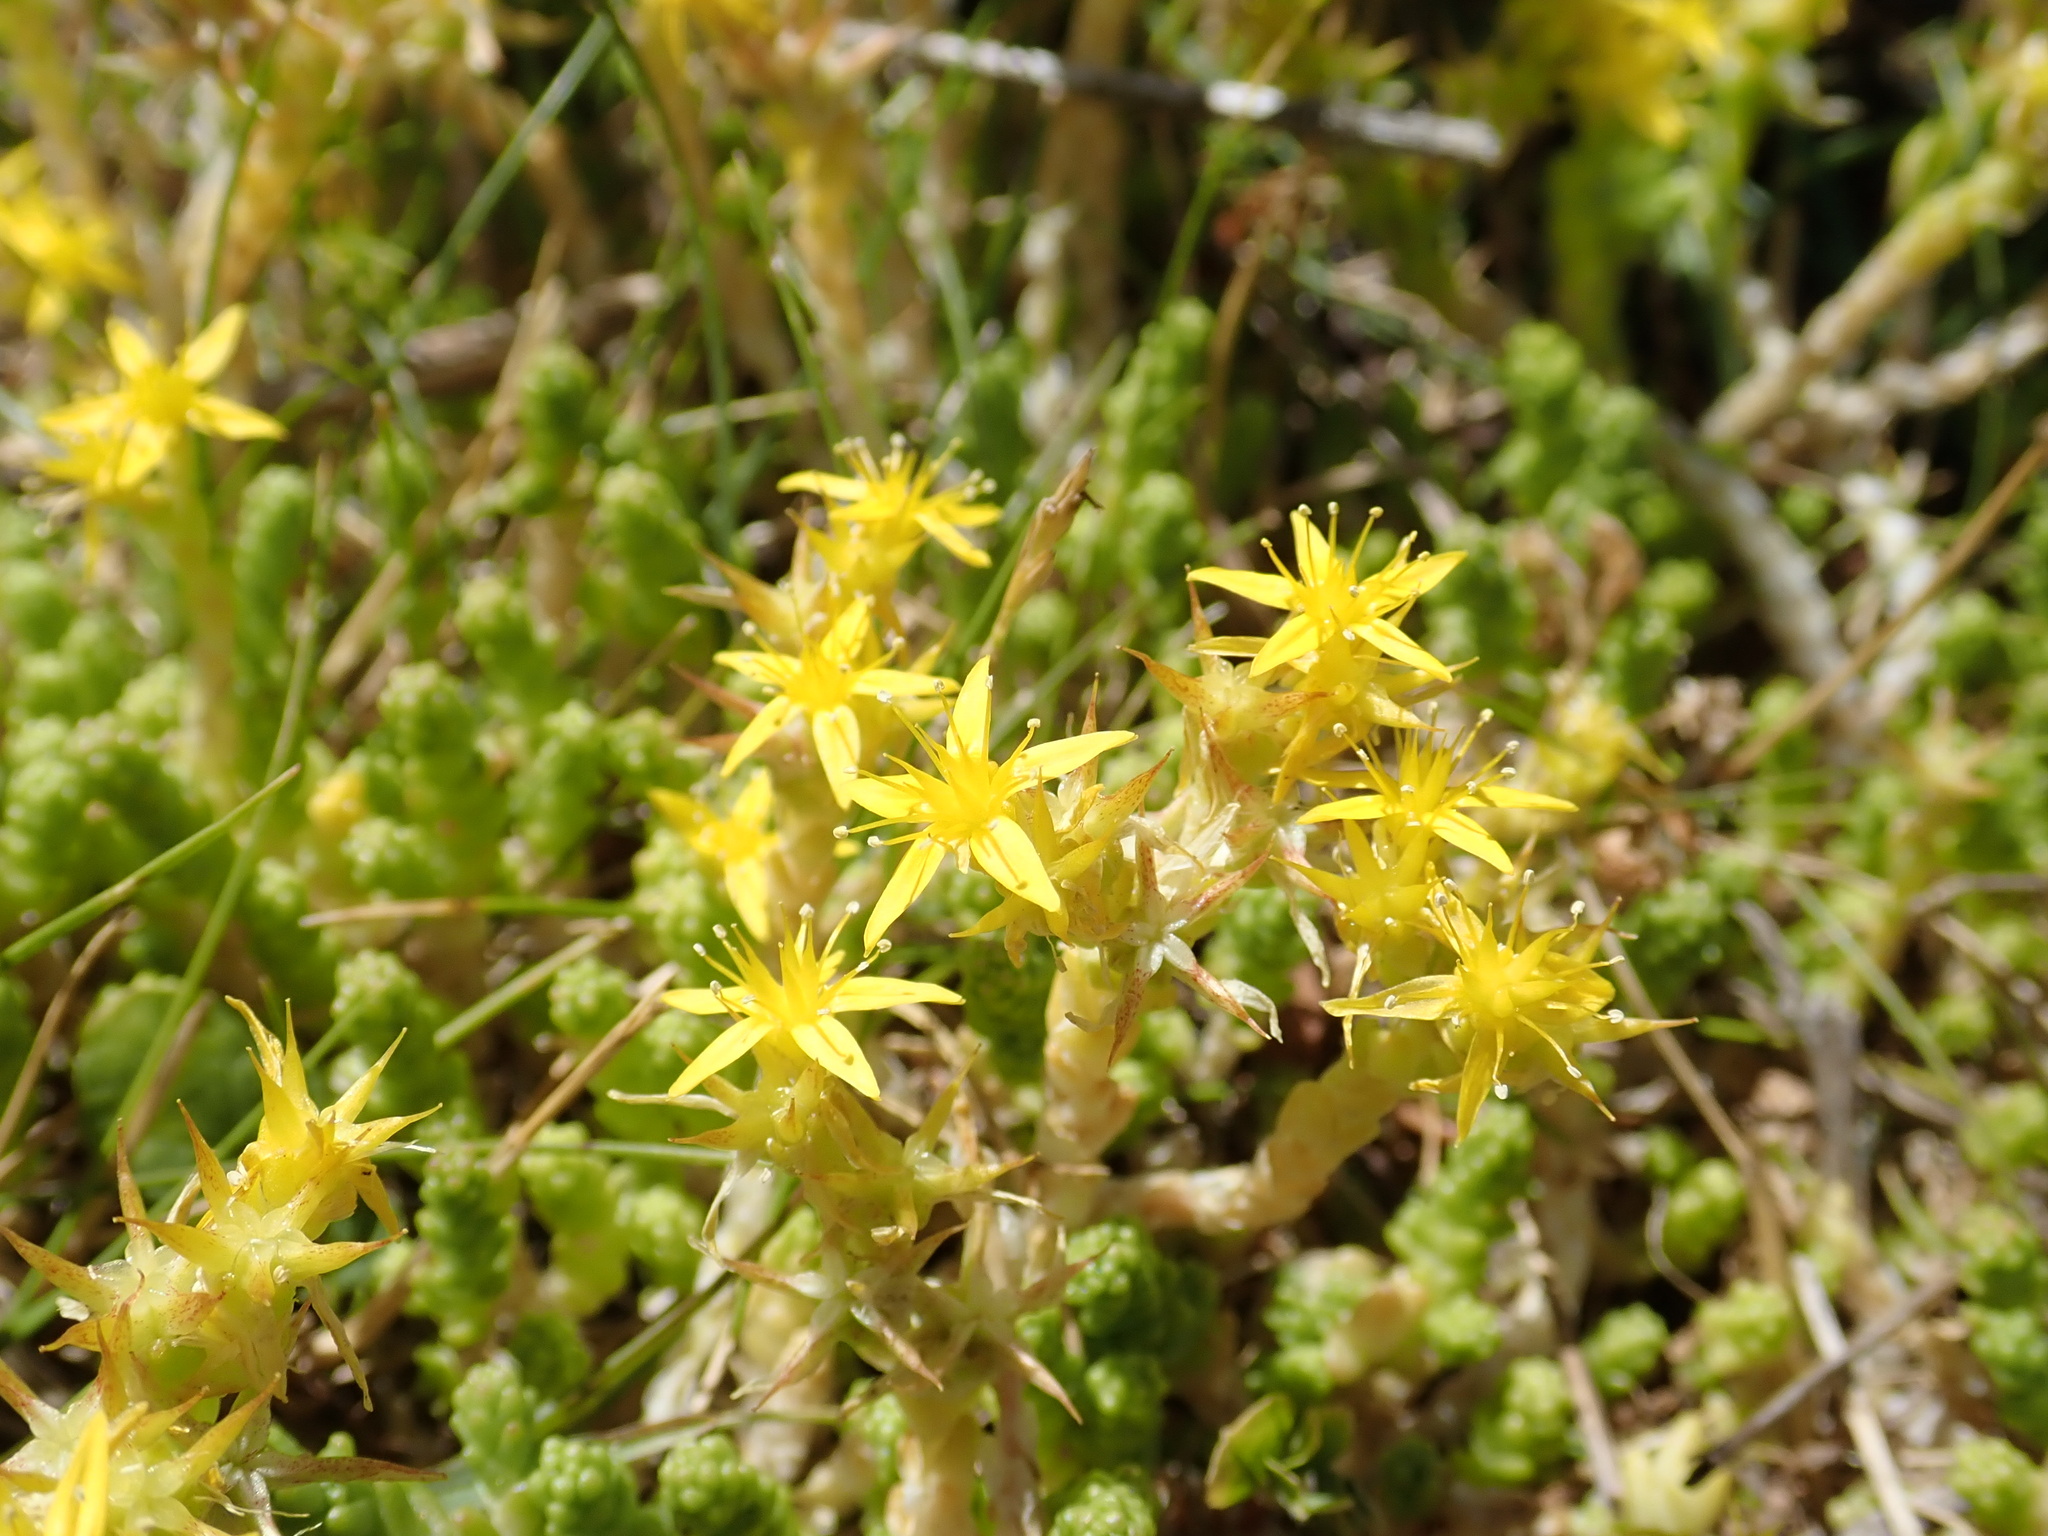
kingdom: Plantae
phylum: Tracheophyta
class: Magnoliopsida
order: Saxifragales
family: Crassulaceae
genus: Sedum
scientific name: Sedum acre
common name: Biting stonecrop
